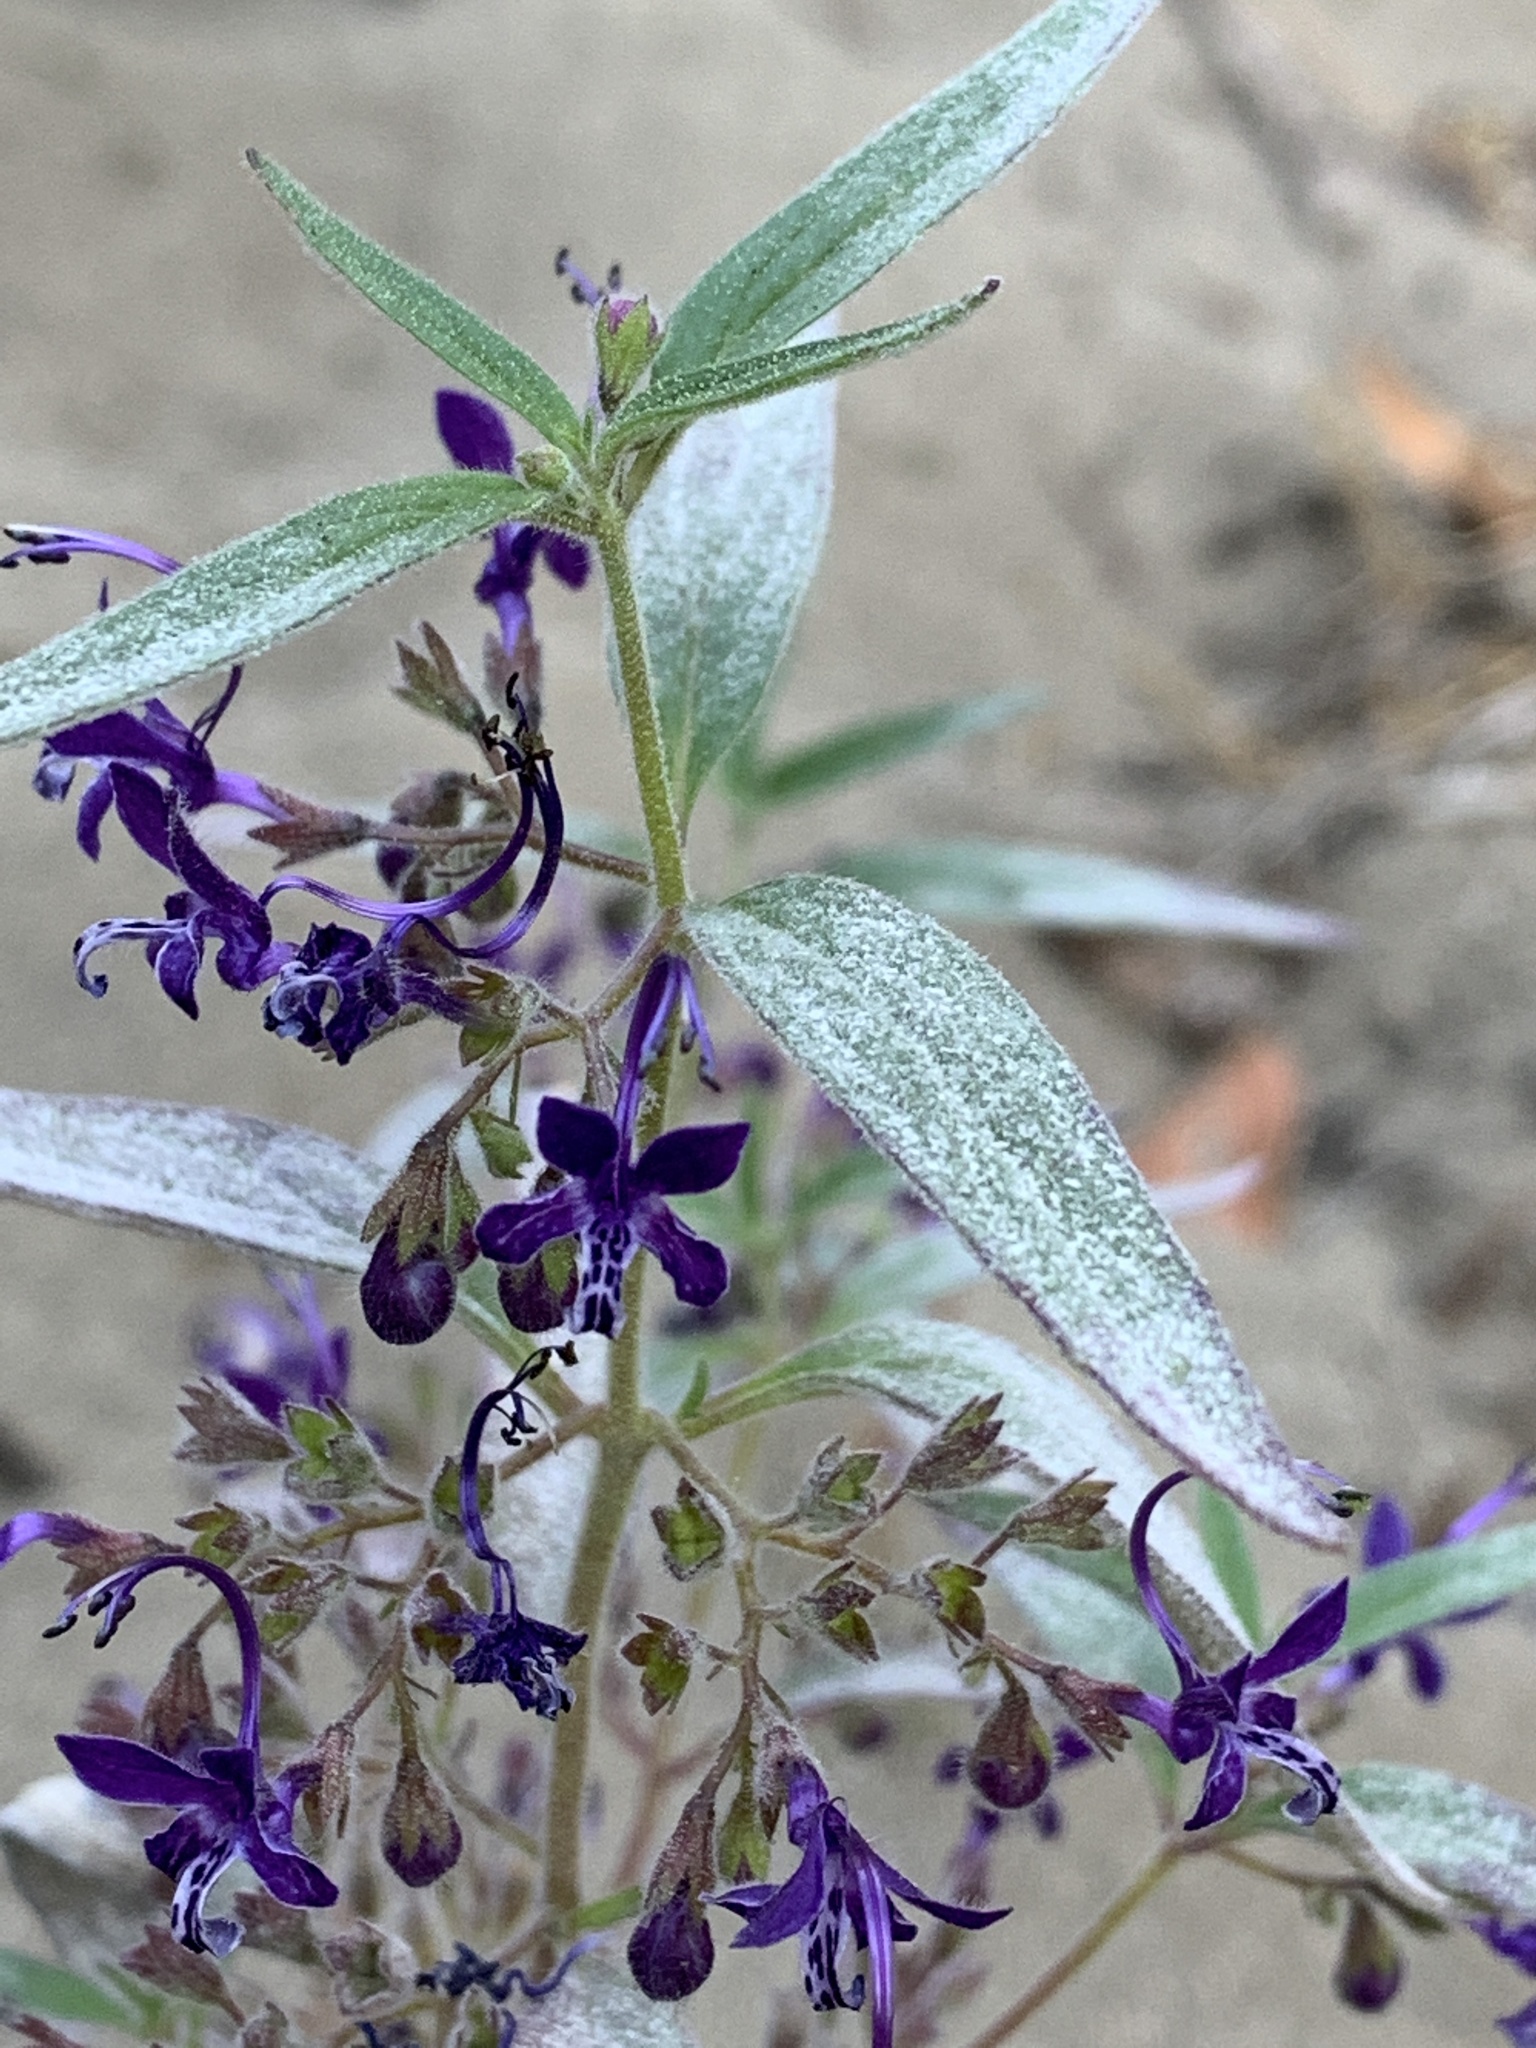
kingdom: Plantae
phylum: Tracheophyta
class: Magnoliopsida
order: Lamiales
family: Lamiaceae
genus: Trichostema
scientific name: Trichostema laxum
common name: Turpentine weed
